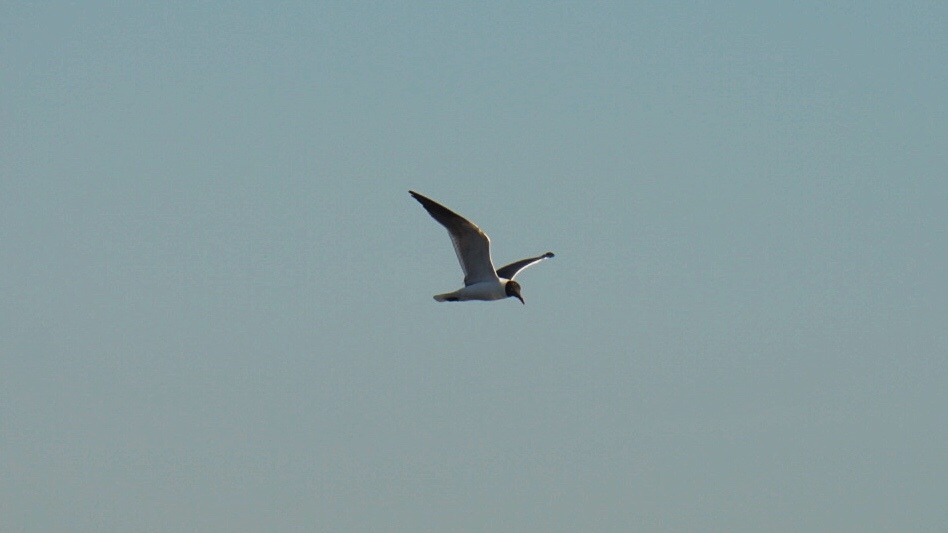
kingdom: Animalia
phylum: Chordata
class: Aves
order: Charadriiformes
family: Laridae
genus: Leucophaeus
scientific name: Leucophaeus atricilla
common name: Laughing gull
